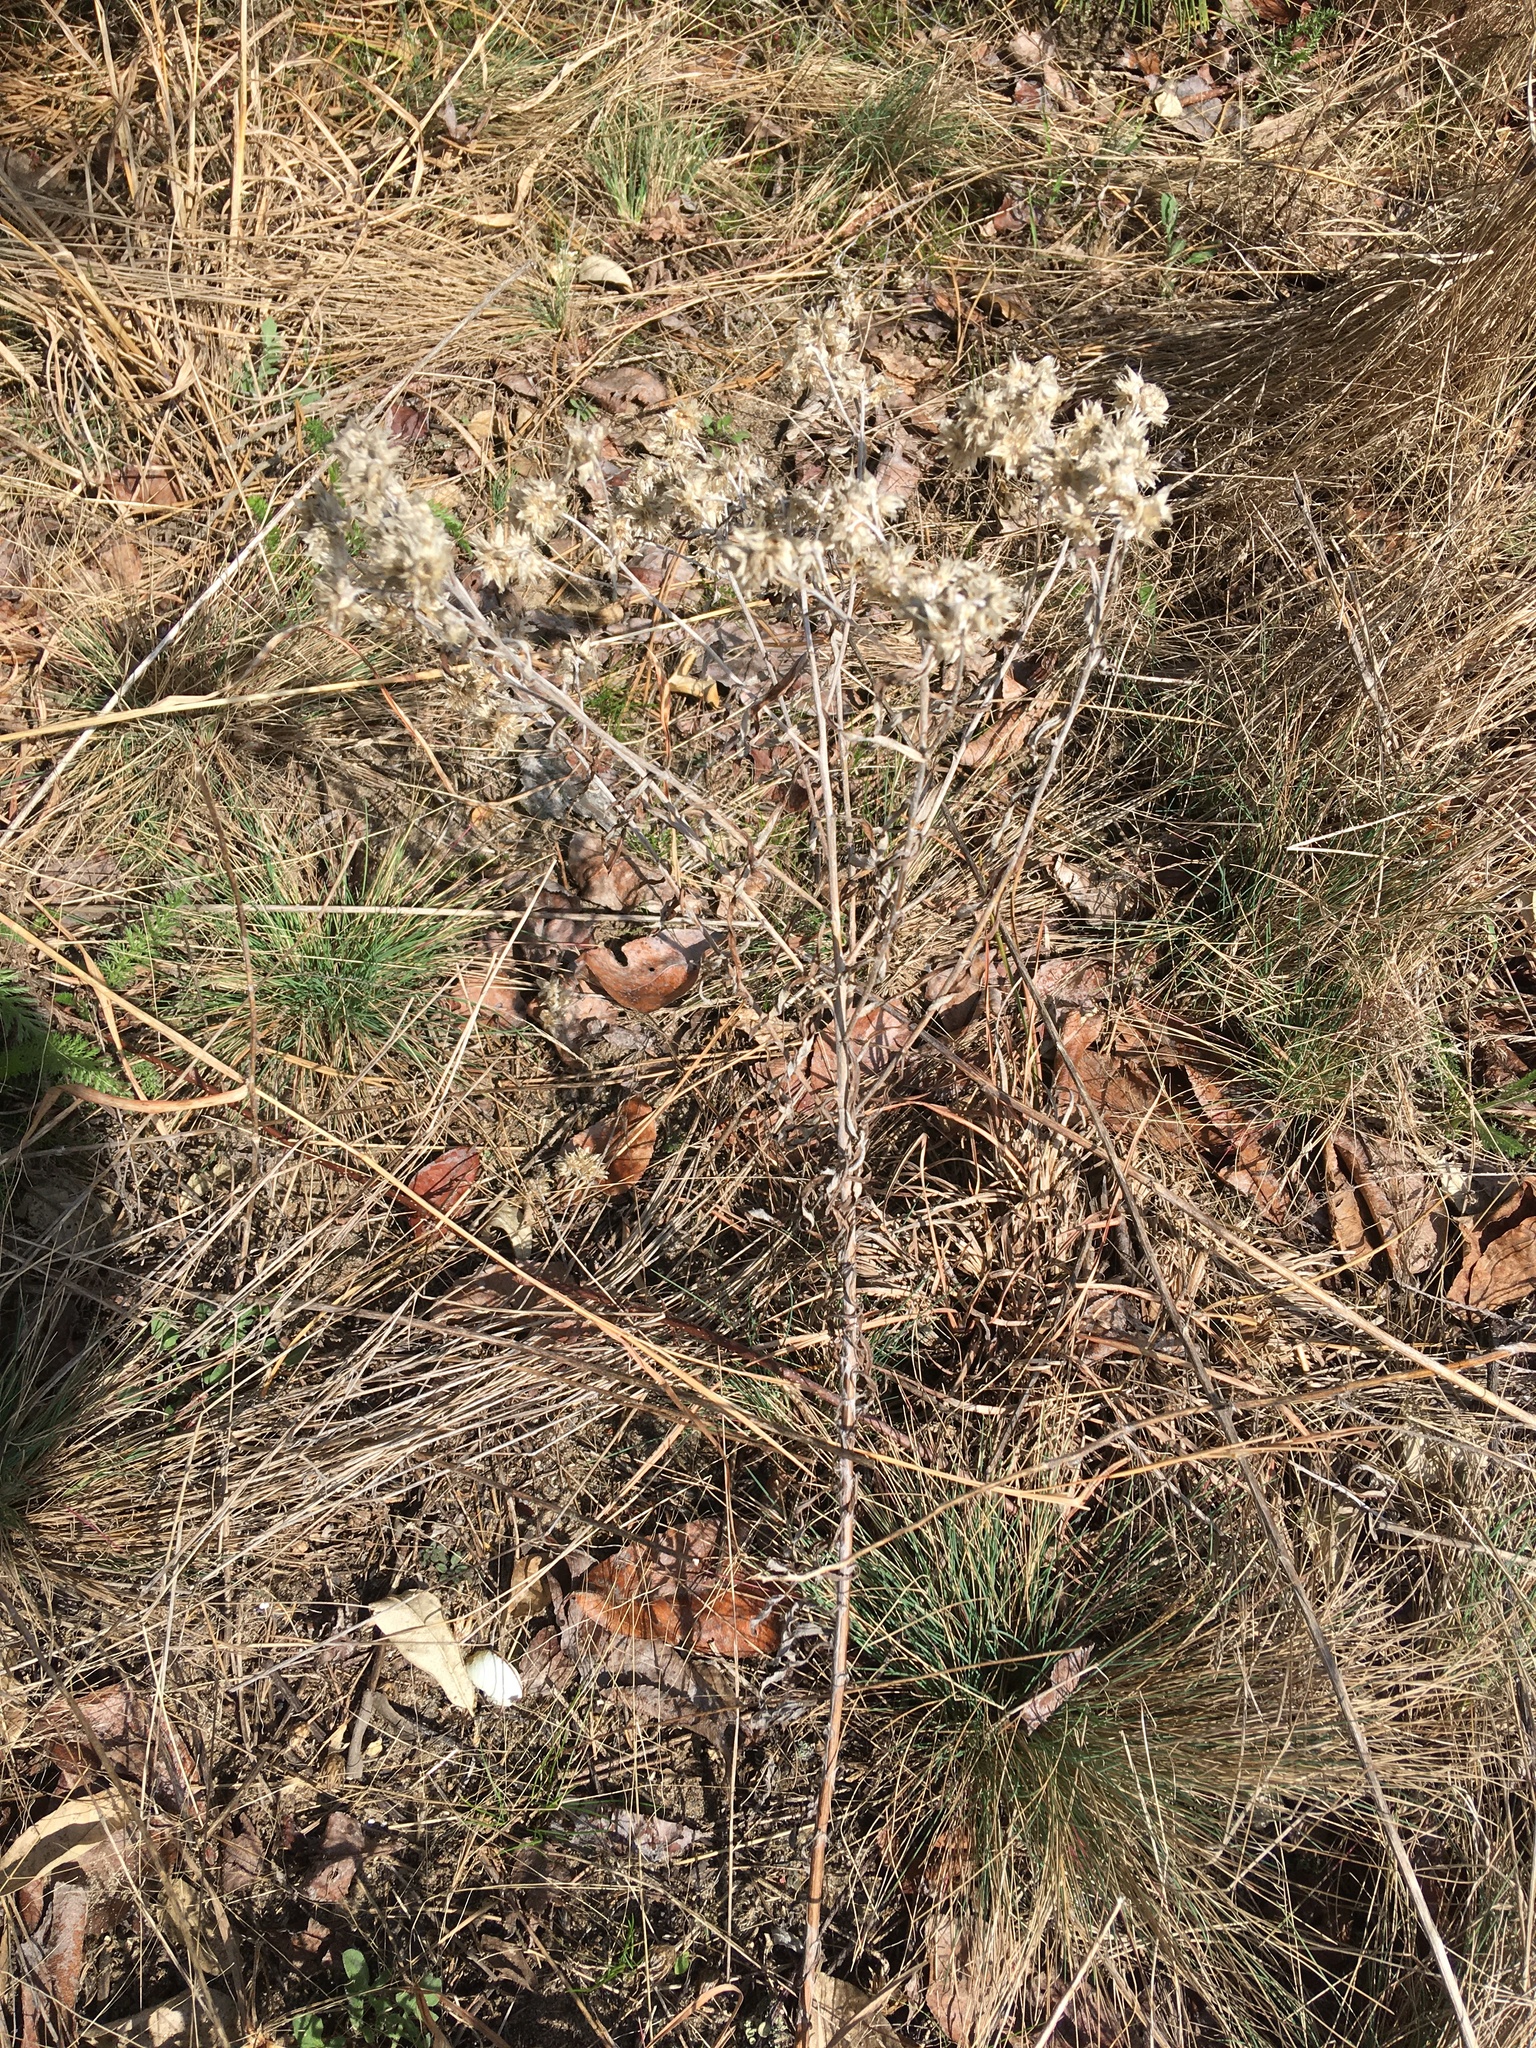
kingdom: Plantae
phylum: Tracheophyta
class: Magnoliopsida
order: Asterales
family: Asteraceae
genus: Pseudognaphalium
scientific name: Pseudognaphalium obtusifolium
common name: Eastern rabbit-tobacco
